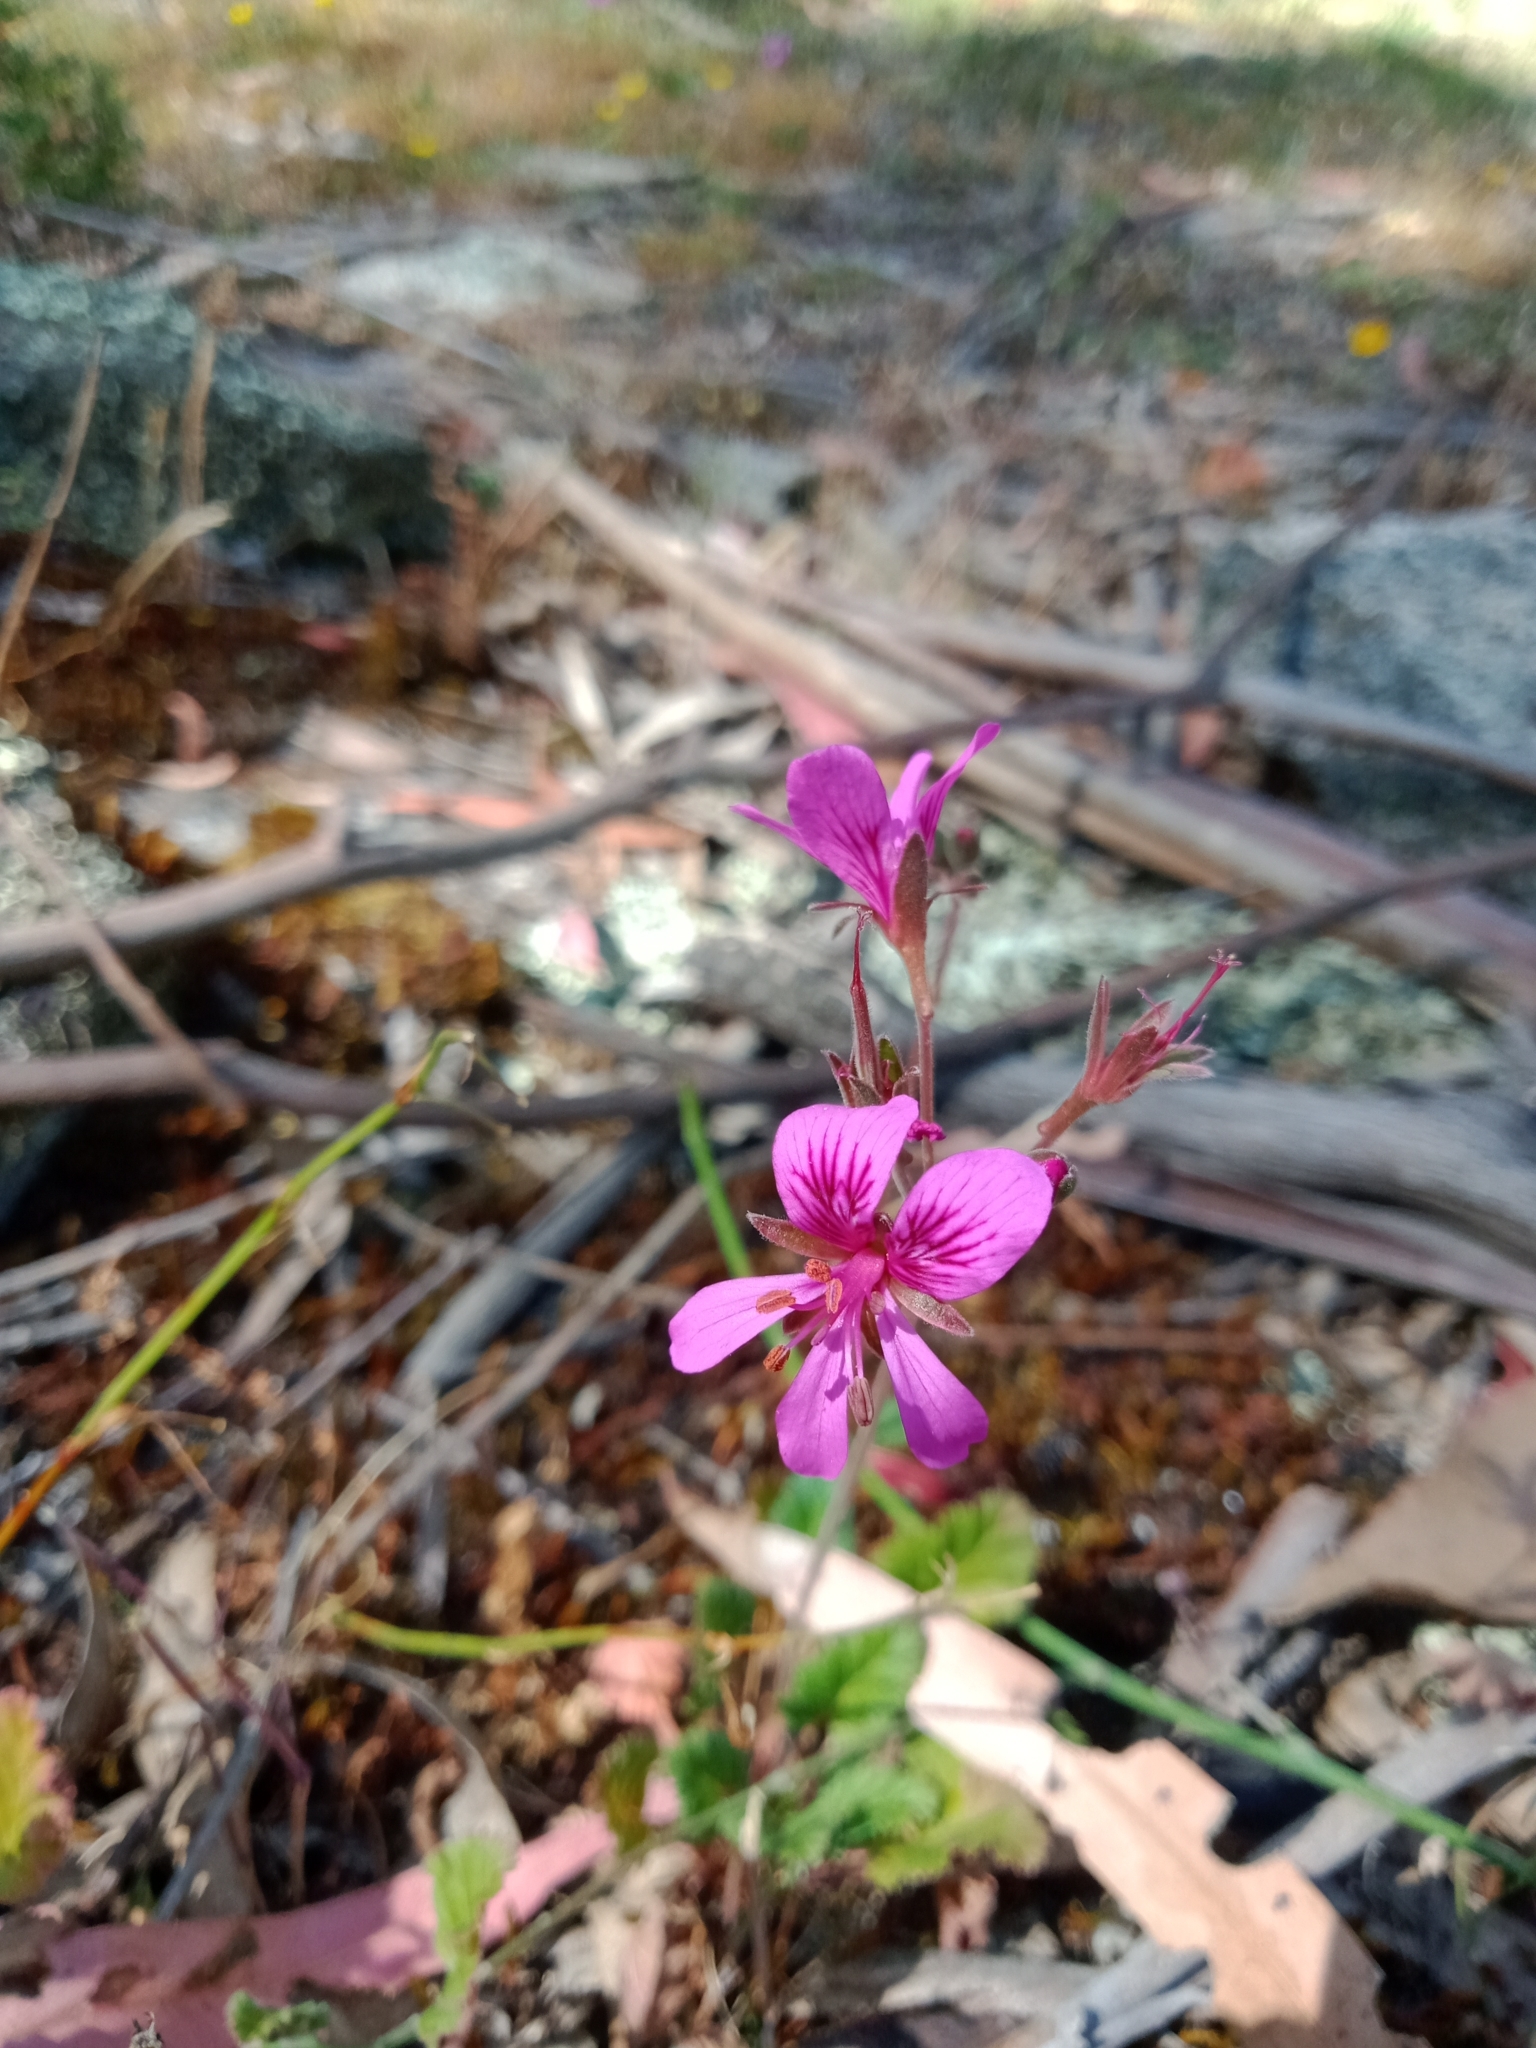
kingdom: Plantae
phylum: Tracheophyta
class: Magnoliopsida
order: Geraniales
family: Geraniaceae
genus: Pelargonium
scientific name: Pelargonium rodneyanum
